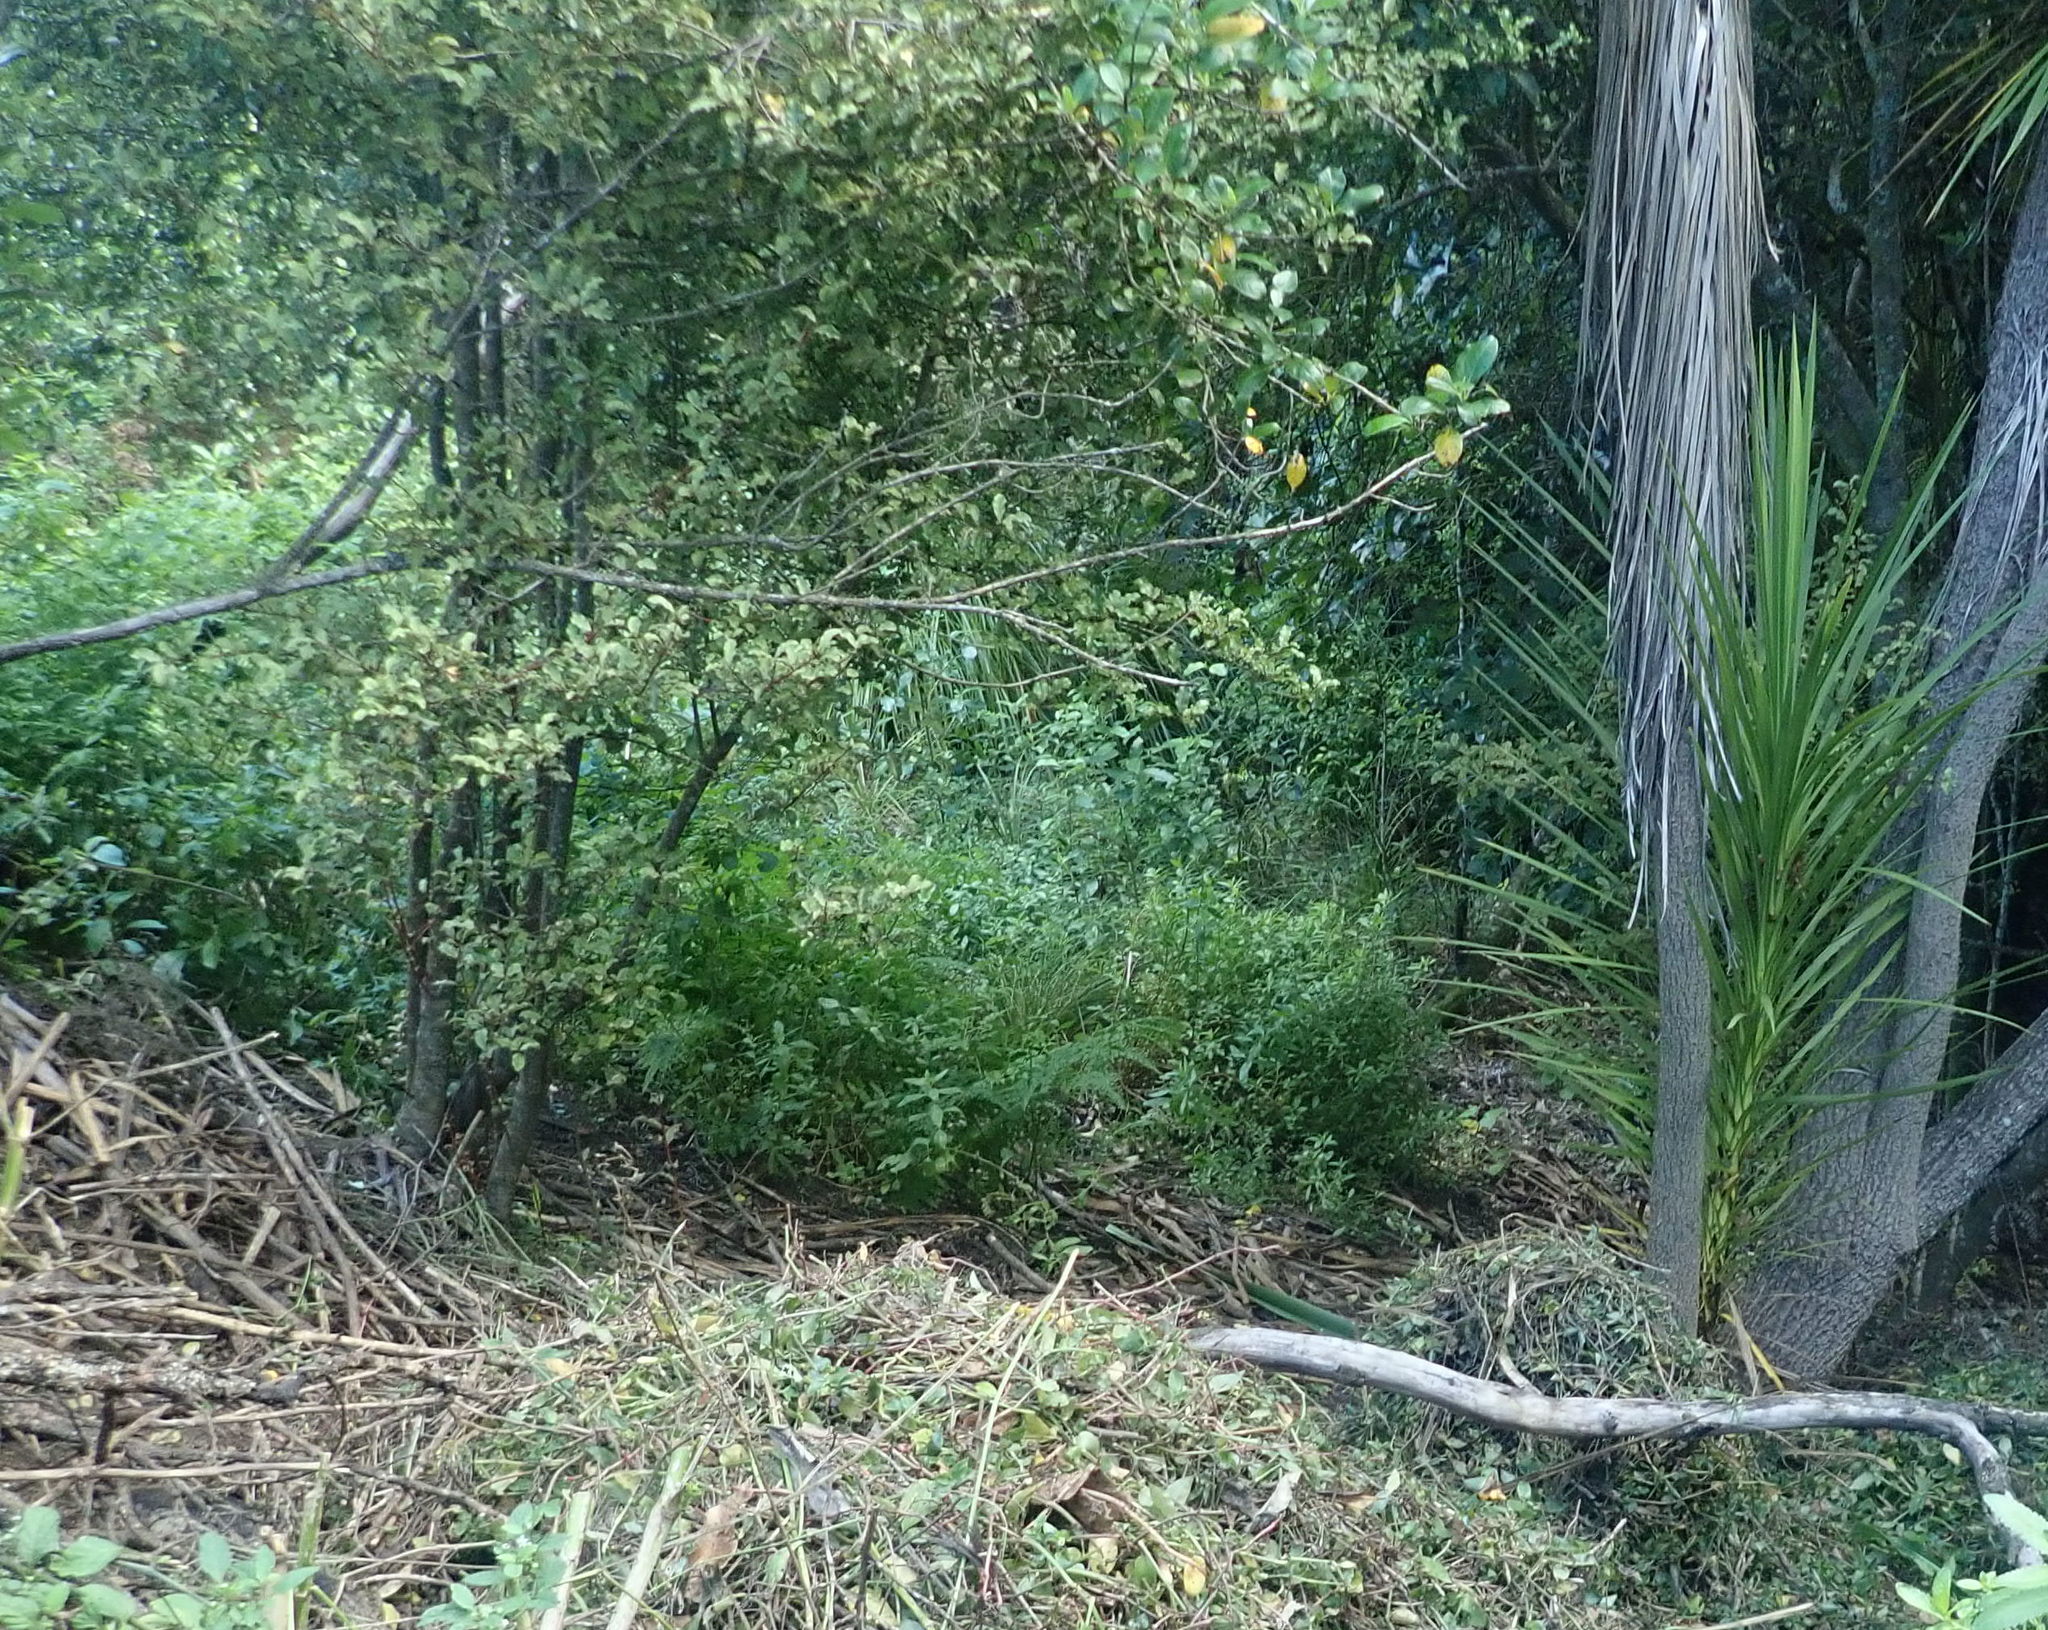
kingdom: Plantae
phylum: Tracheophyta
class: Magnoliopsida
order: Ericales
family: Primulaceae
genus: Myrsine
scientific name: Myrsine australis
